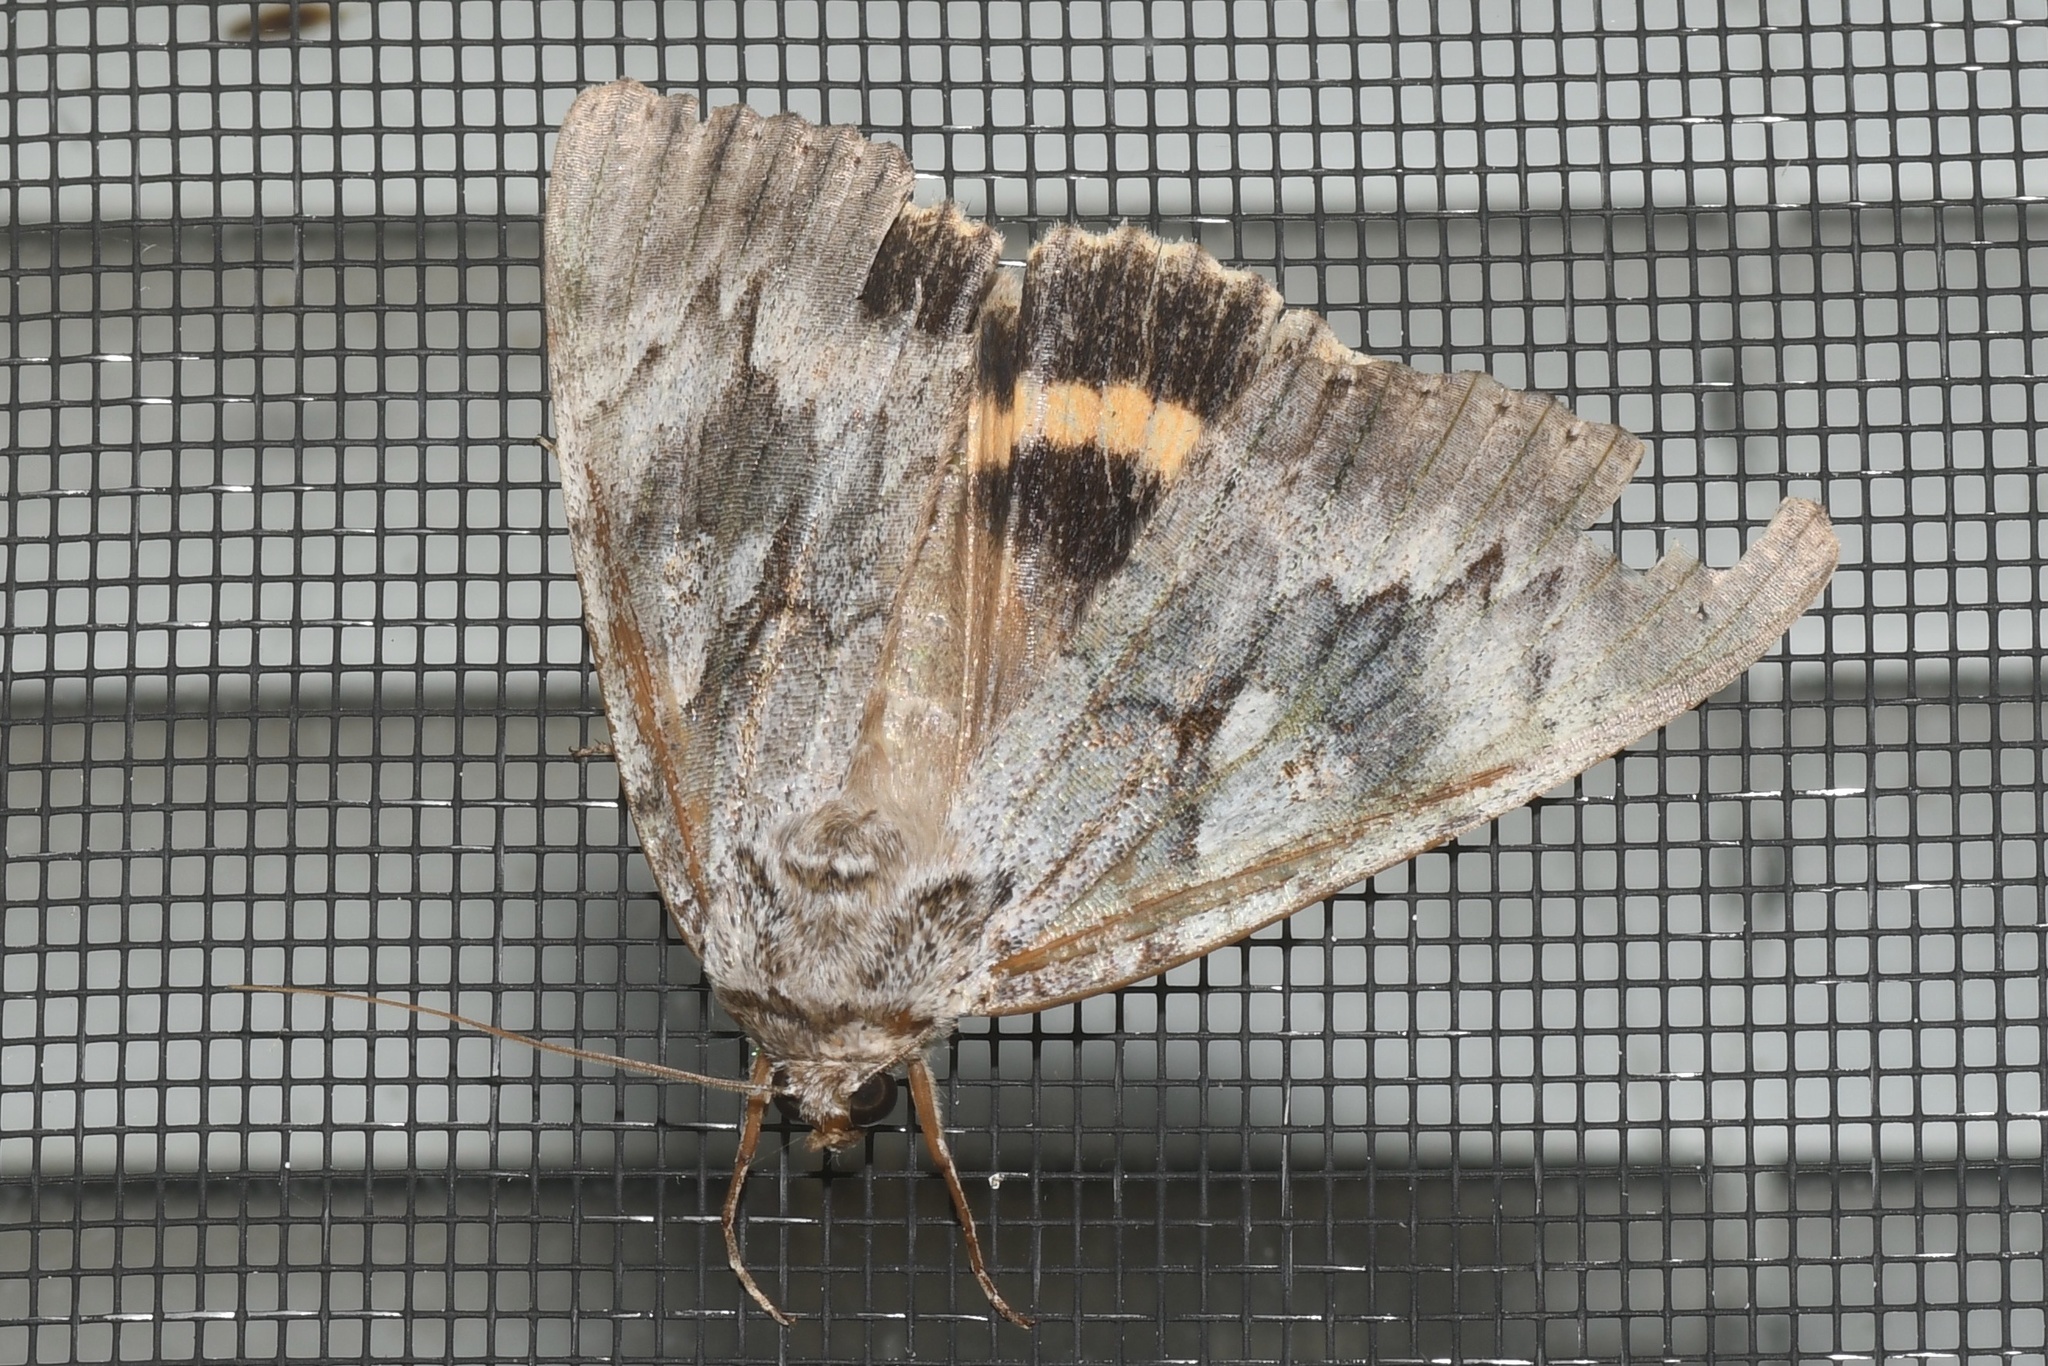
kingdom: Animalia
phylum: Arthropoda
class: Insecta
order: Lepidoptera
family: Erebidae
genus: Catocala
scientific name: Catocala cerogama
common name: Yellow banded underwing
